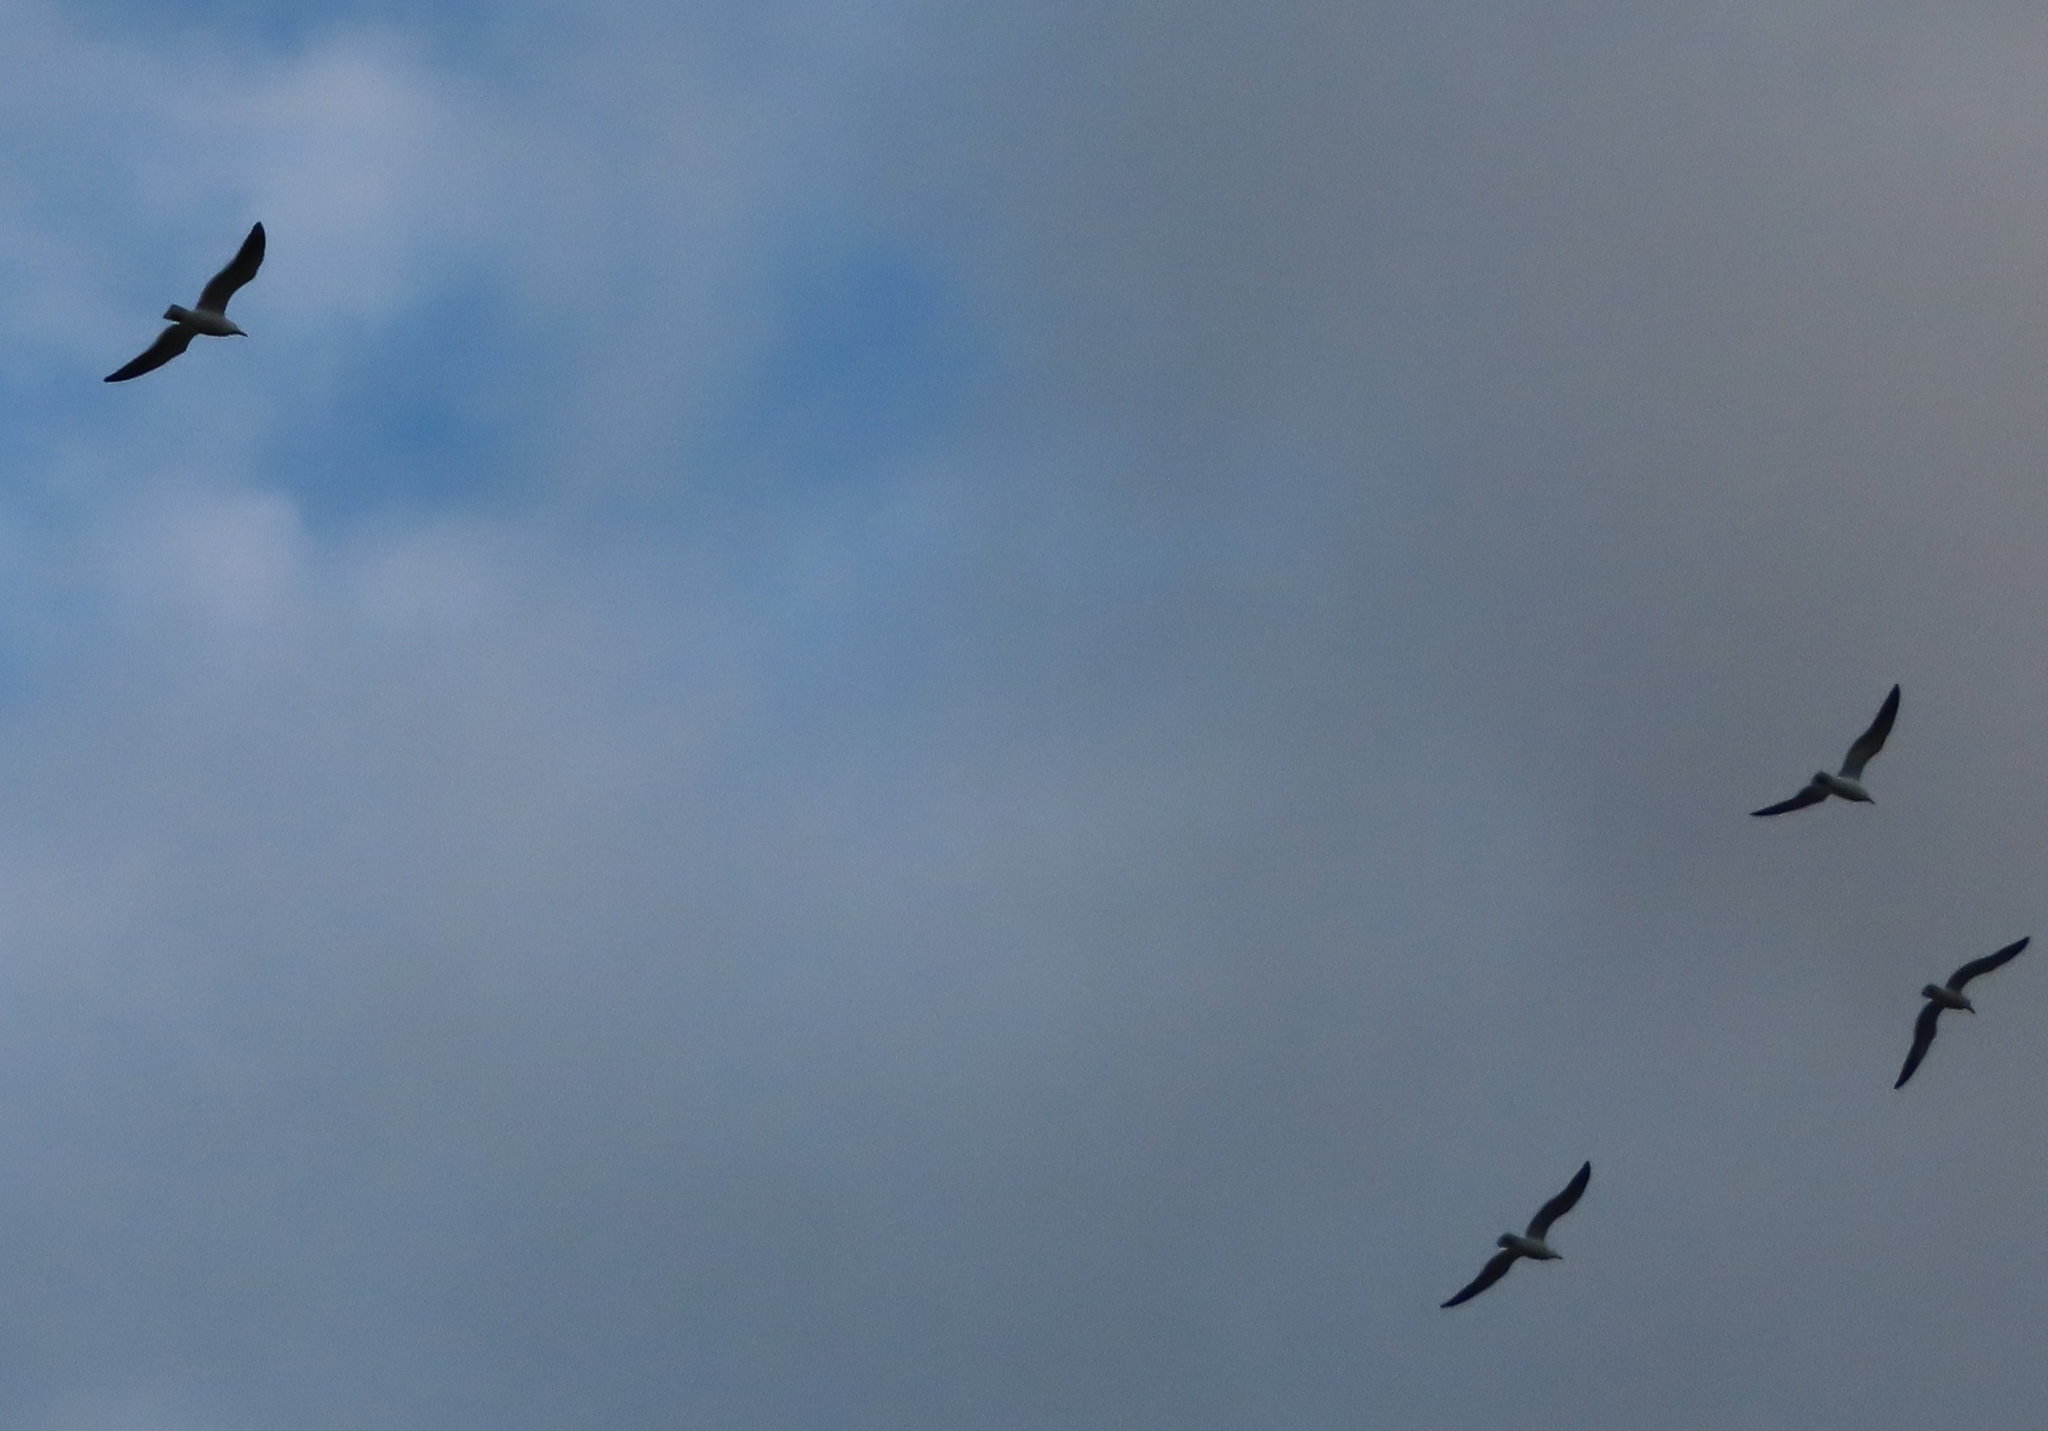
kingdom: Animalia
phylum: Chordata
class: Aves
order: Charadriiformes
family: Laridae
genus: Chroicocephalus
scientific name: Chroicocephalus hartlaubii
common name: Hartlaub's gull
